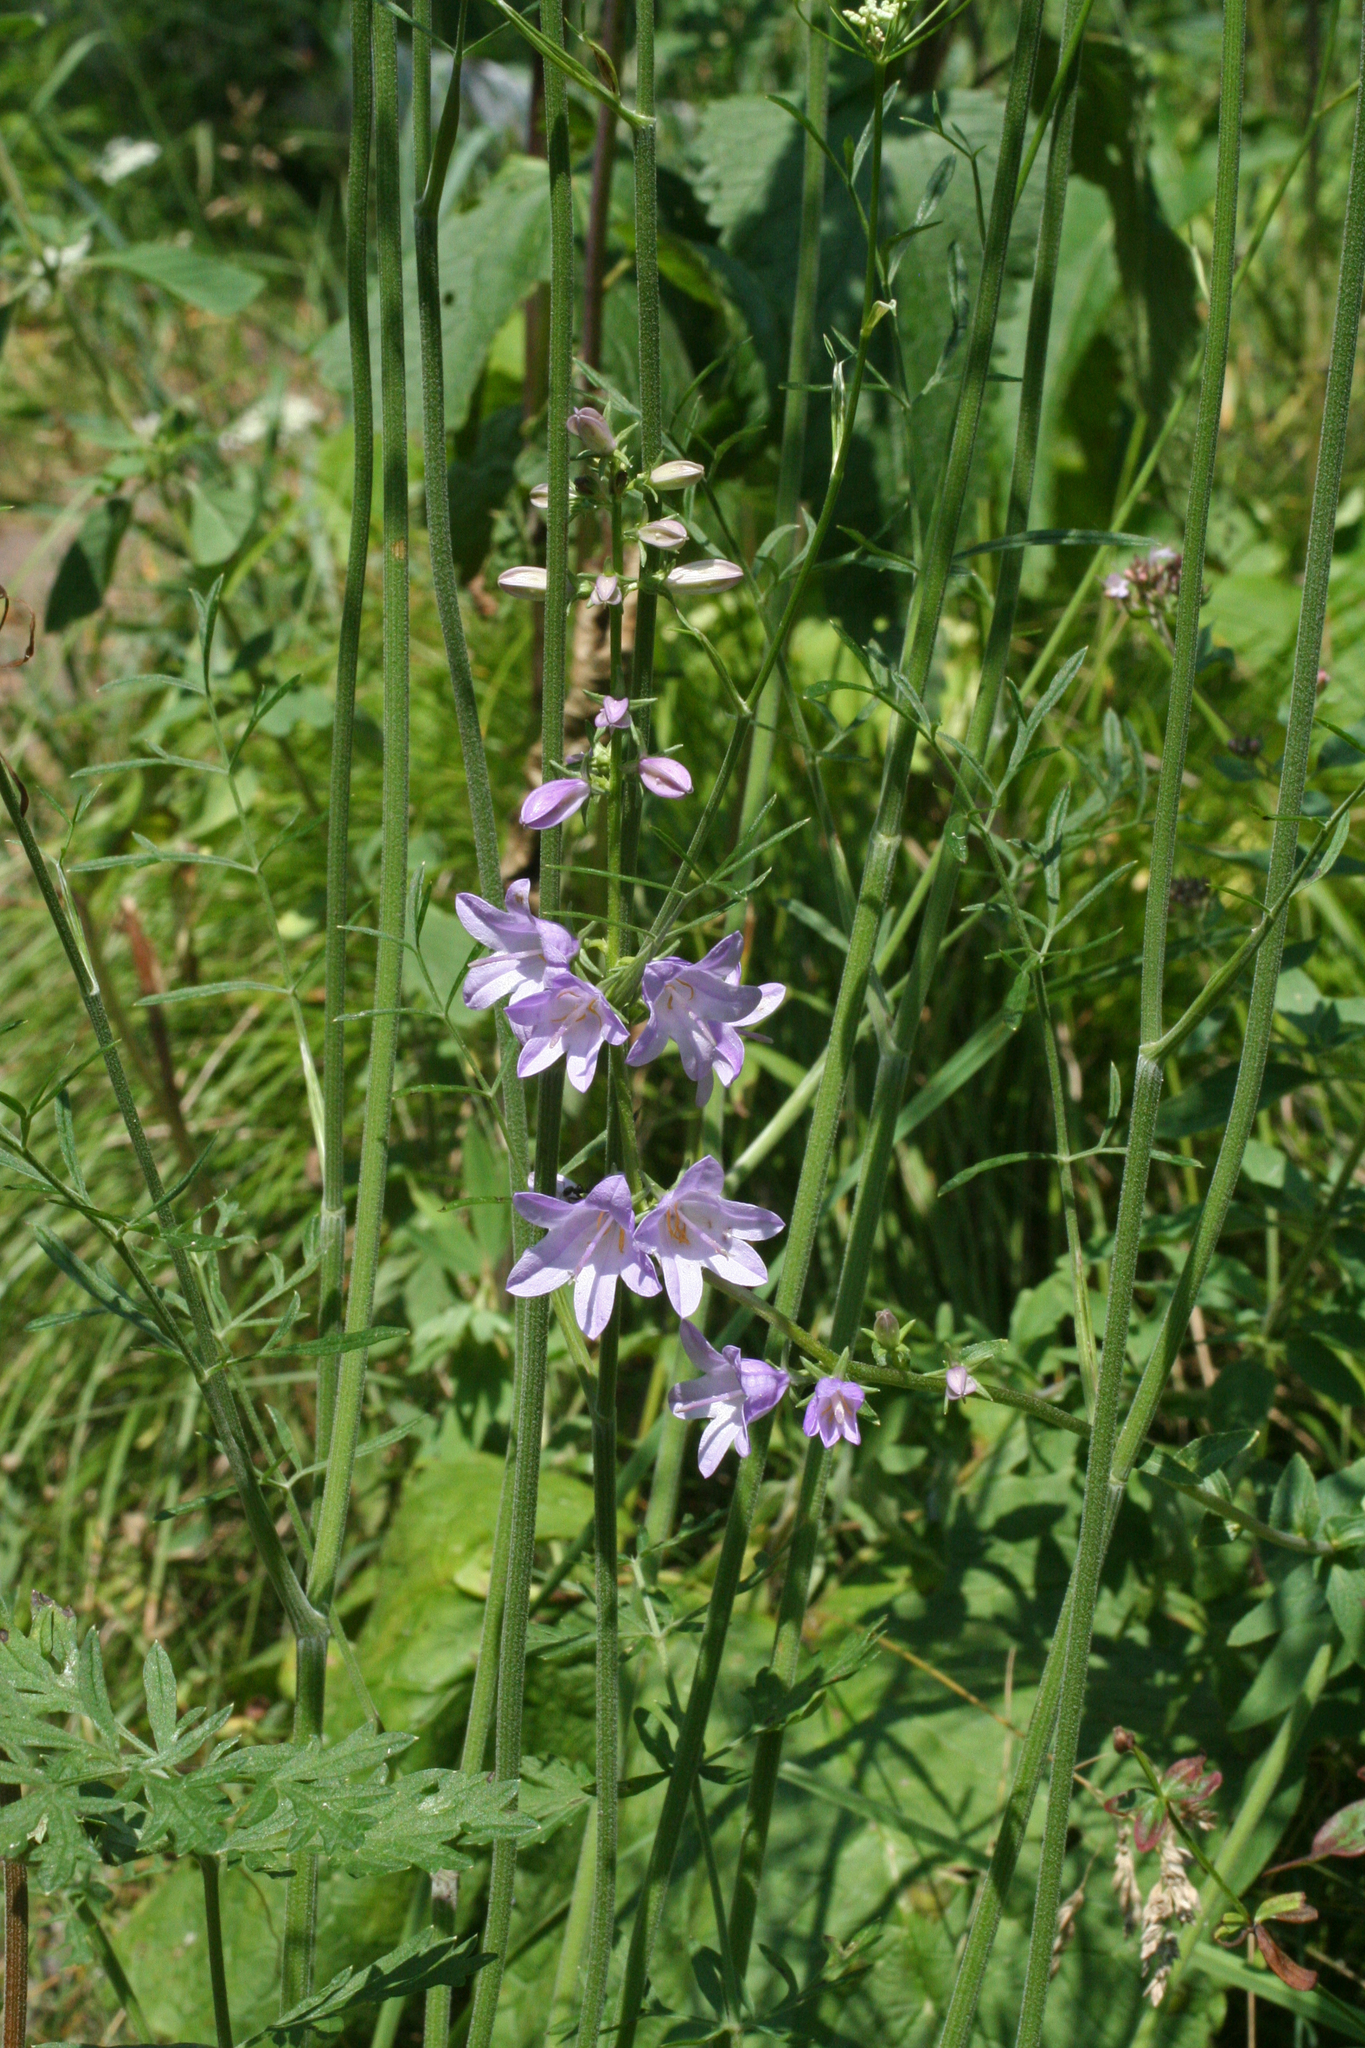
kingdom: Plantae
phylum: Tracheophyta
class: Magnoliopsida
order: Asterales
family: Campanulaceae
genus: Campanula
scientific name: Campanula bononiensis
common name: Pale bellflower
